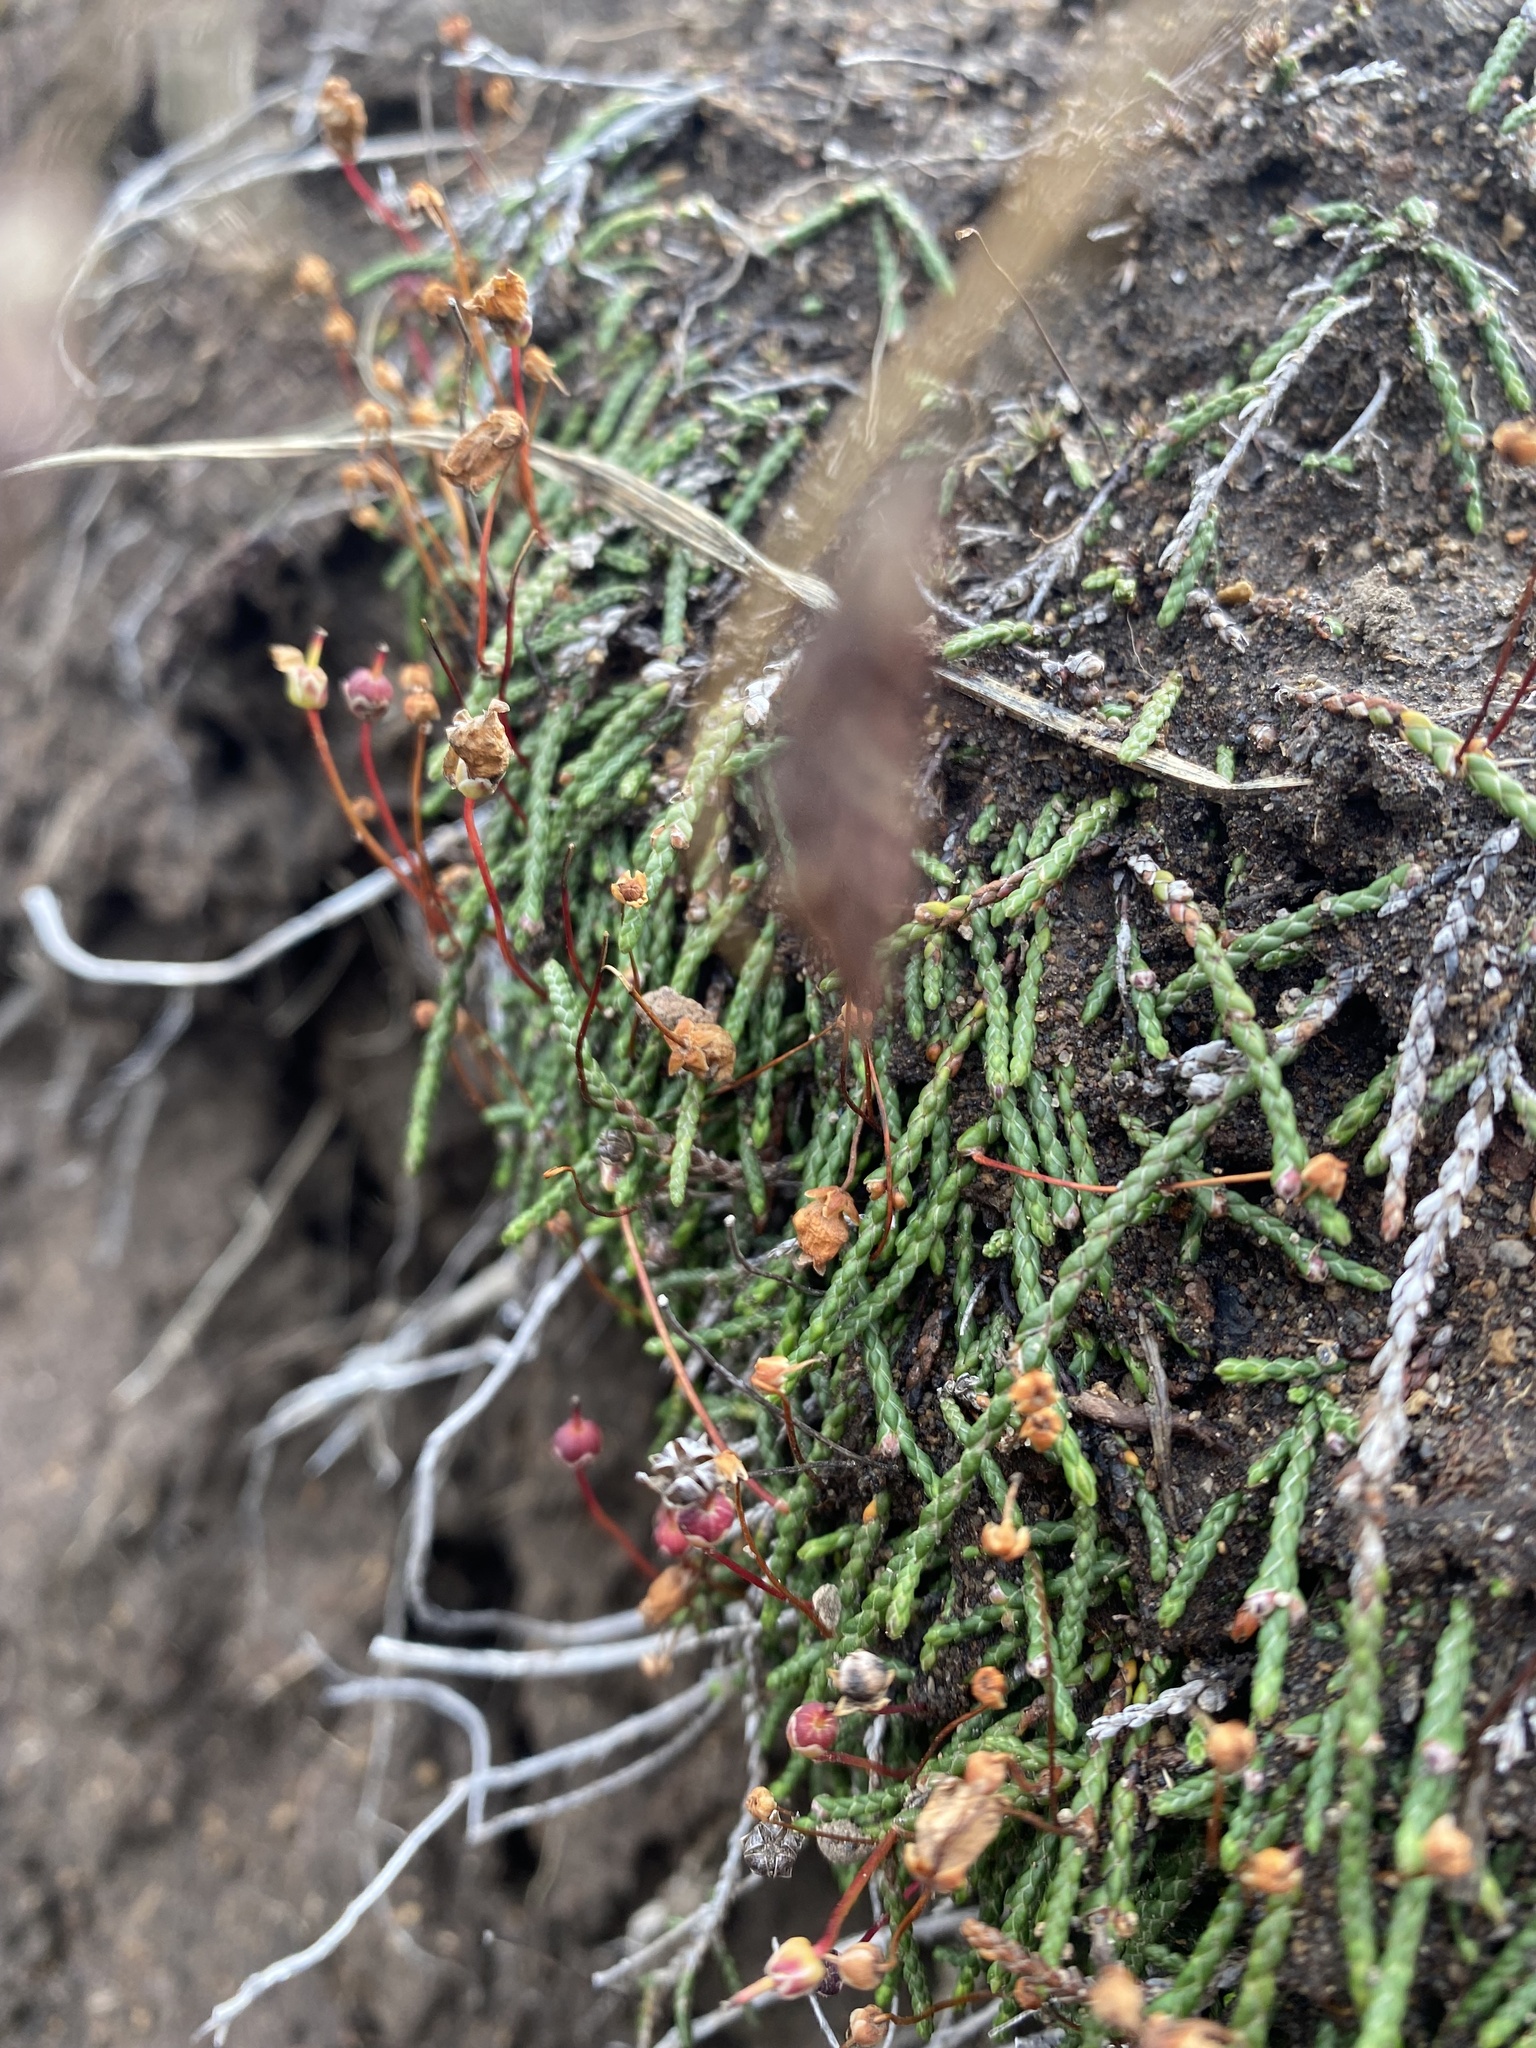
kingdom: Plantae
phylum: Tracheophyta
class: Magnoliopsida
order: Ericales
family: Ericaceae
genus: Cassiope
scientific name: Cassiope lycopodioides
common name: Clubmoss mountain heather
